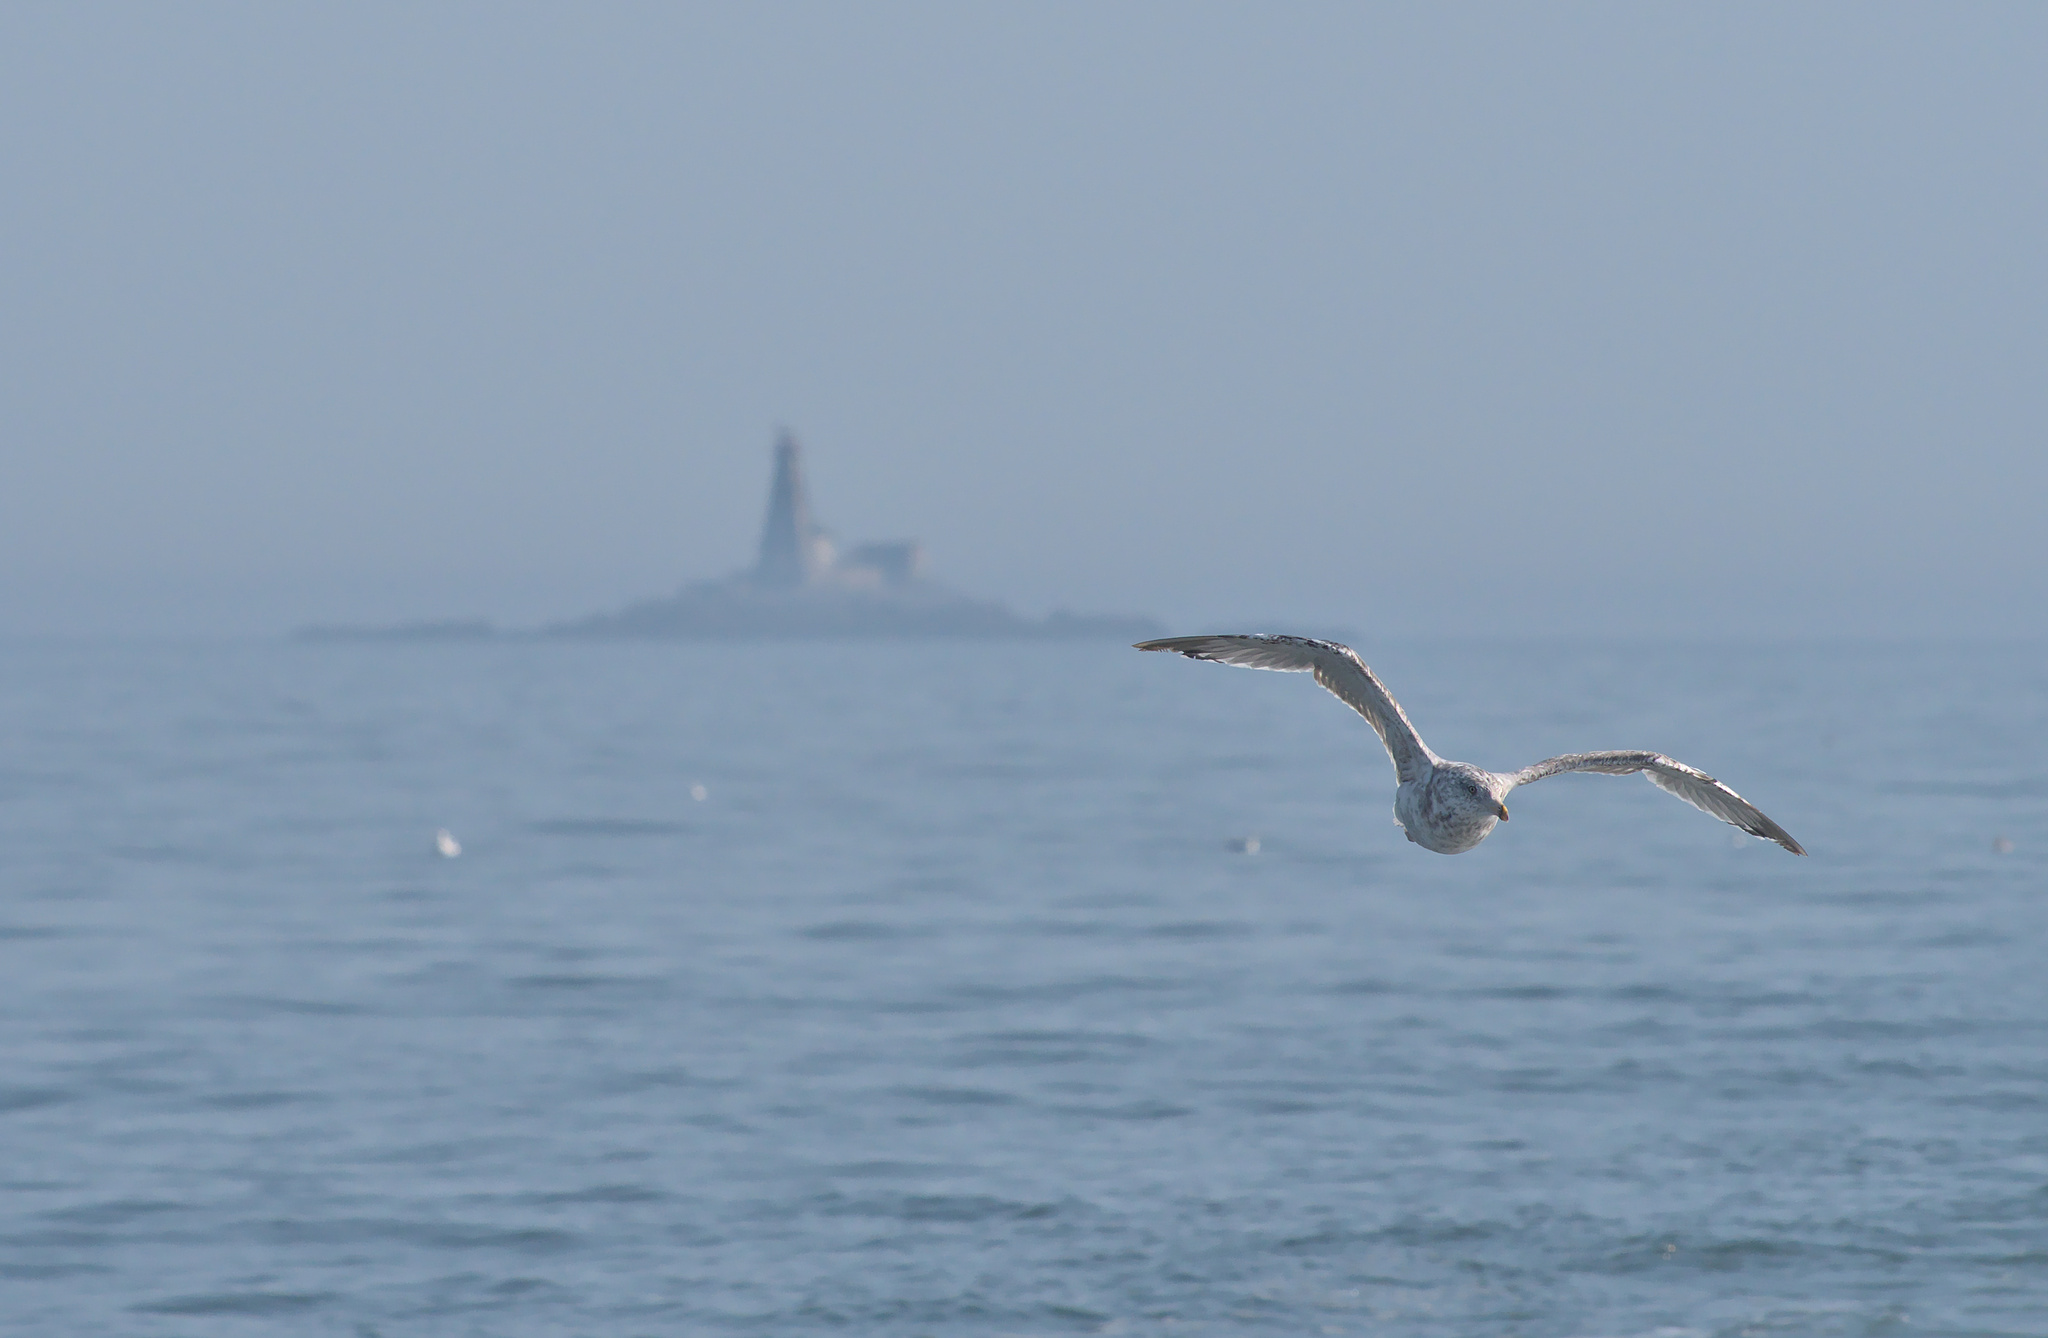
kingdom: Animalia
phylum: Chordata
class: Aves
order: Charadriiformes
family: Laridae
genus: Larus
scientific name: Larus argentatus
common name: Herring gull
